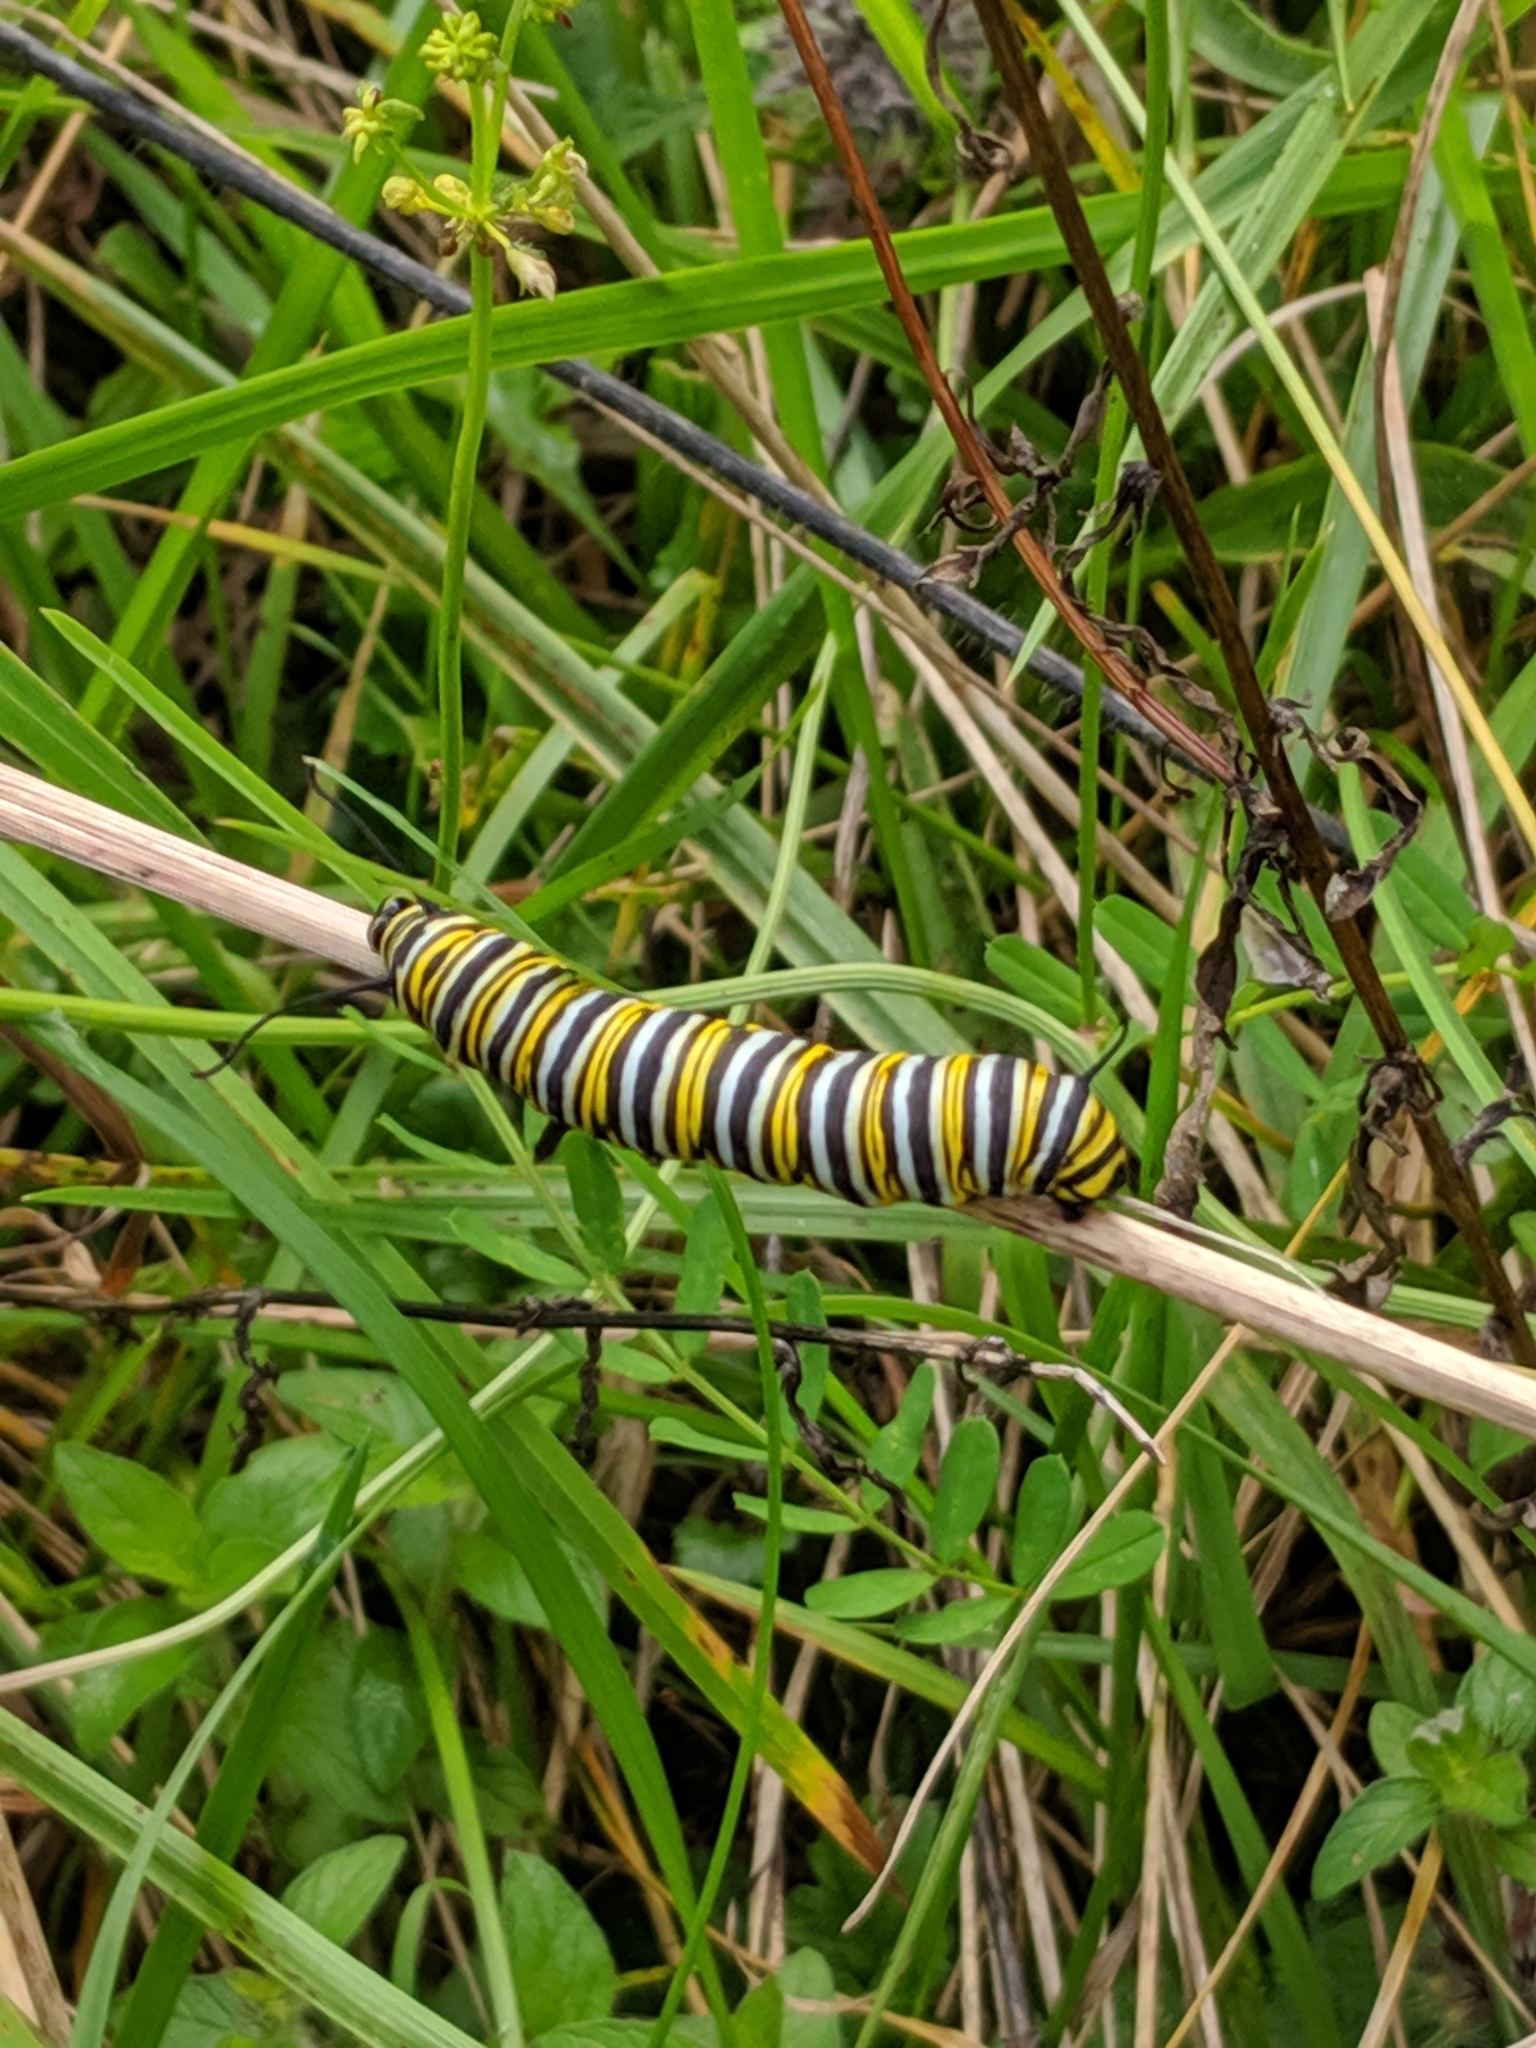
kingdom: Animalia
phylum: Arthropoda
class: Insecta
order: Lepidoptera
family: Nymphalidae
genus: Danaus
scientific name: Danaus plexippus
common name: Monarch
